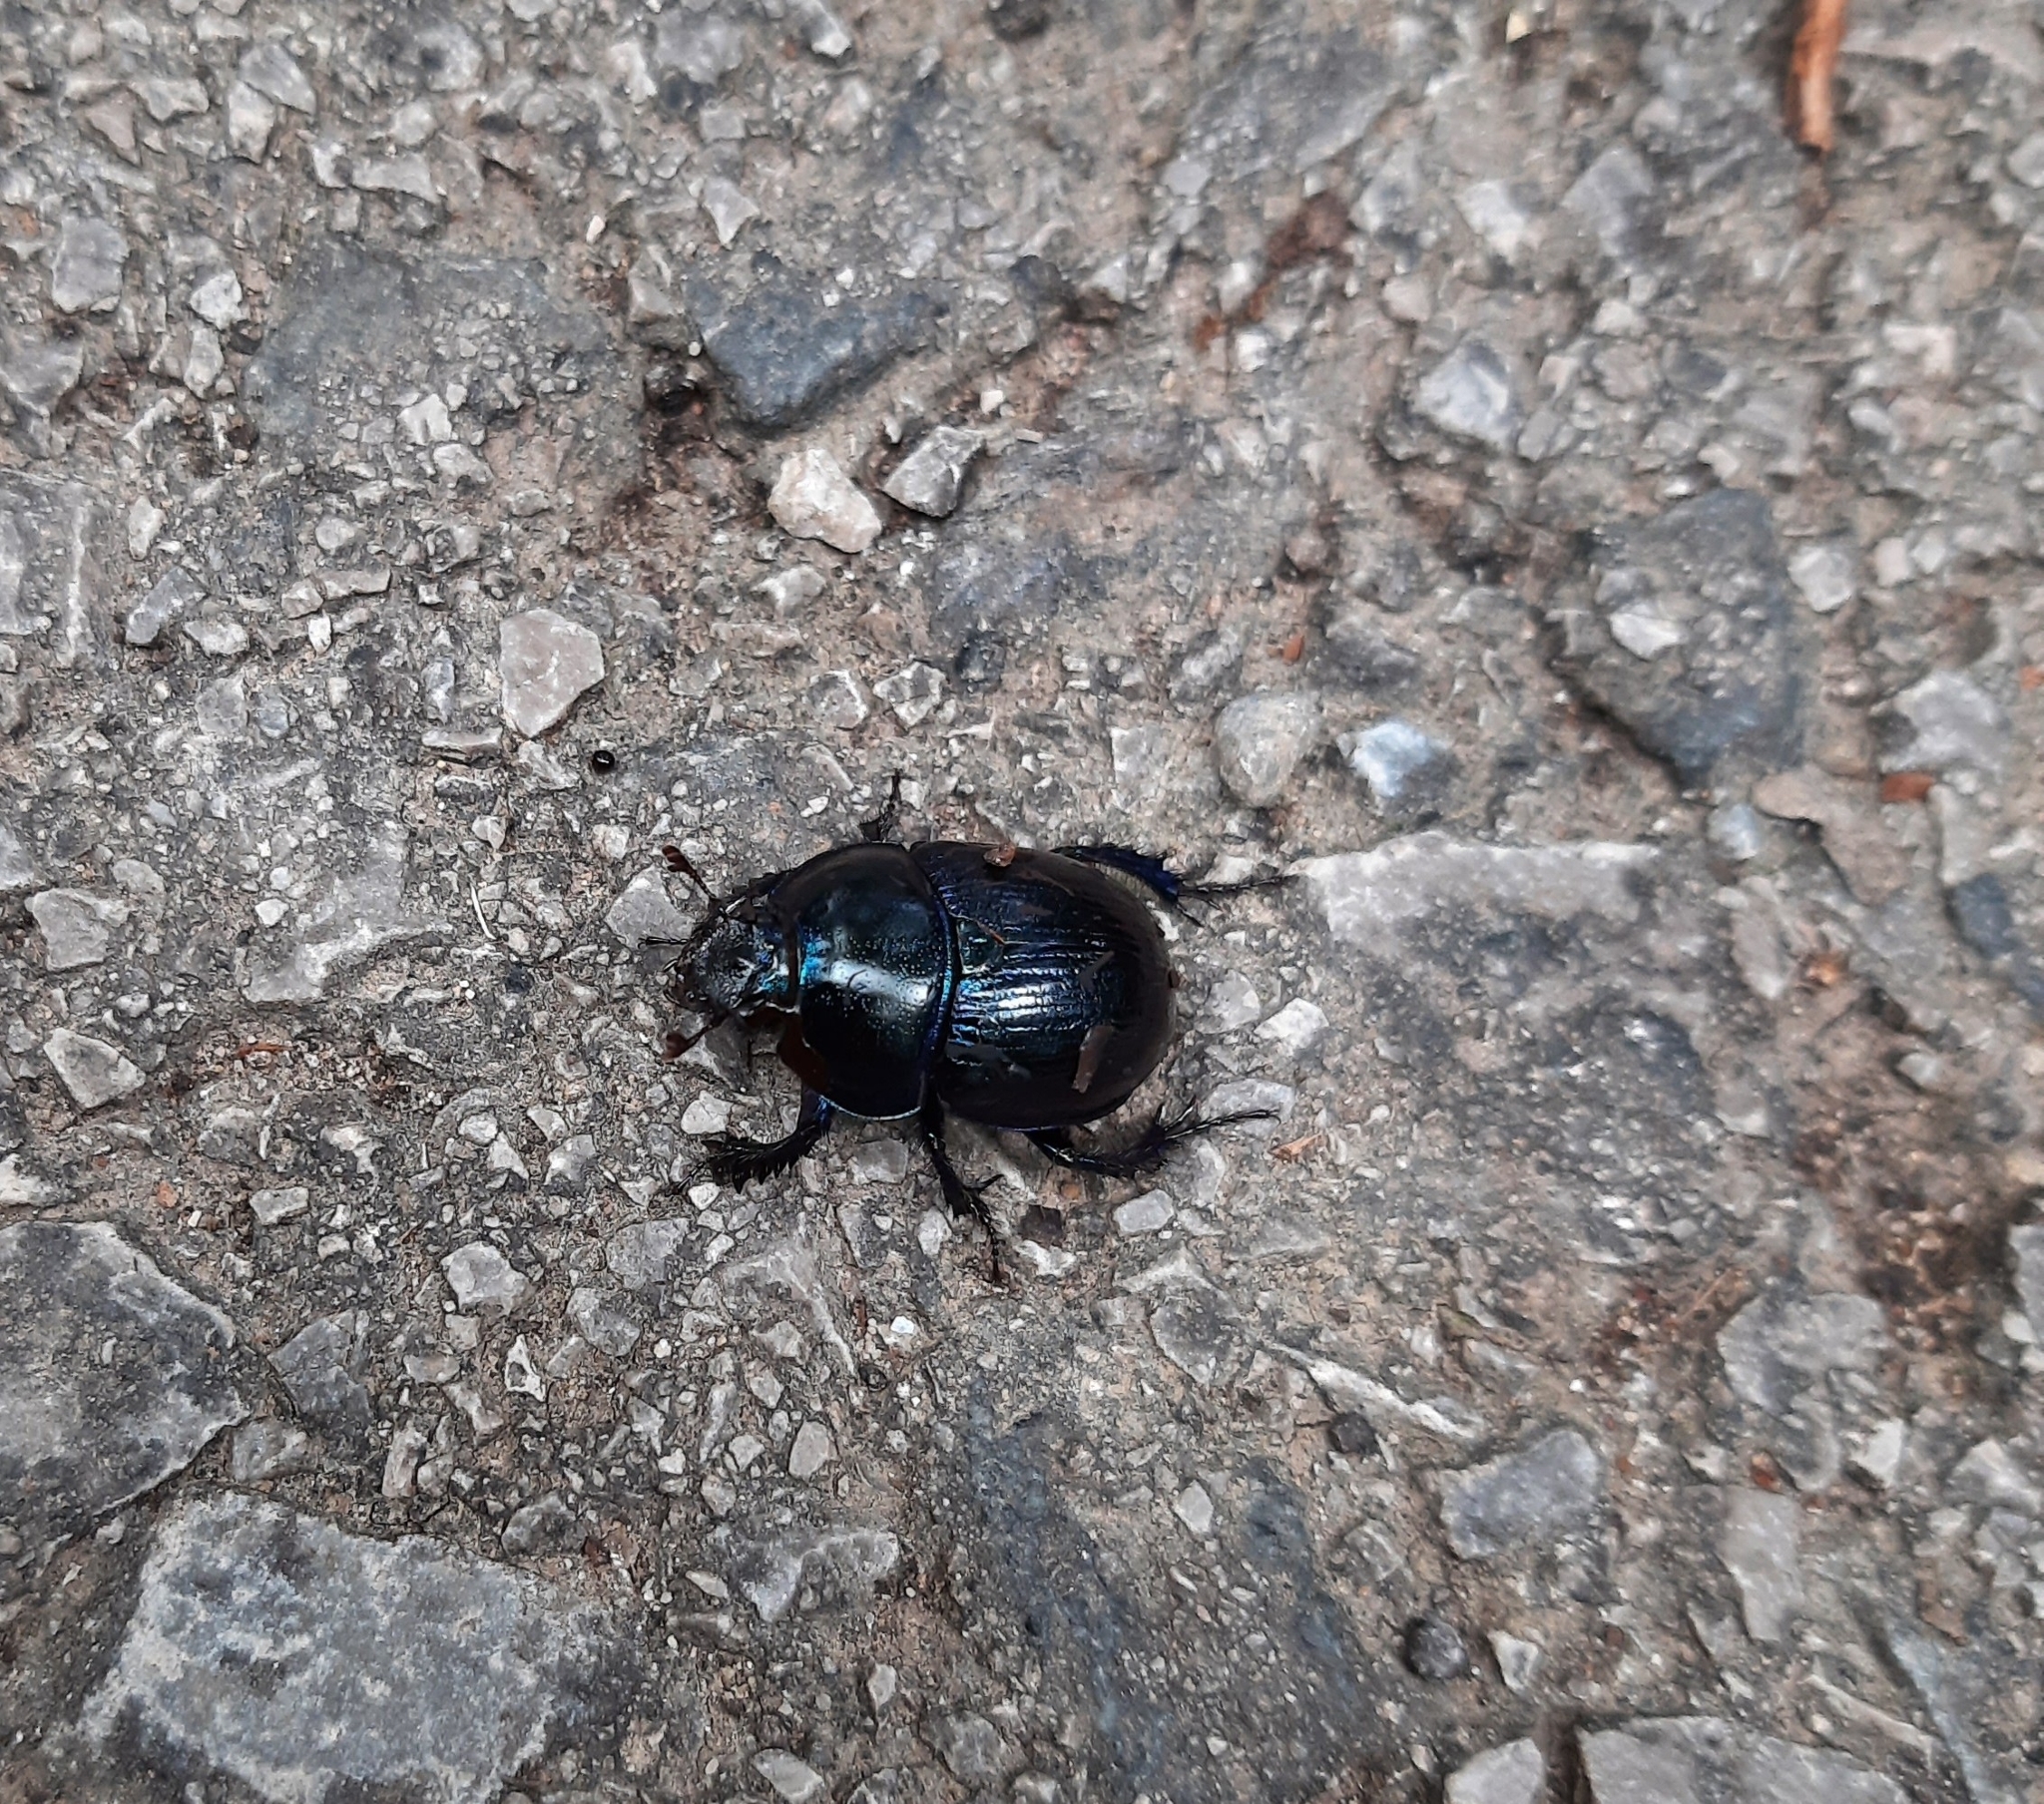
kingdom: Animalia
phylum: Arthropoda
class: Insecta
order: Coleoptera
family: Geotrupidae
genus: Anoplotrupes
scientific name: Anoplotrupes stercorosus
